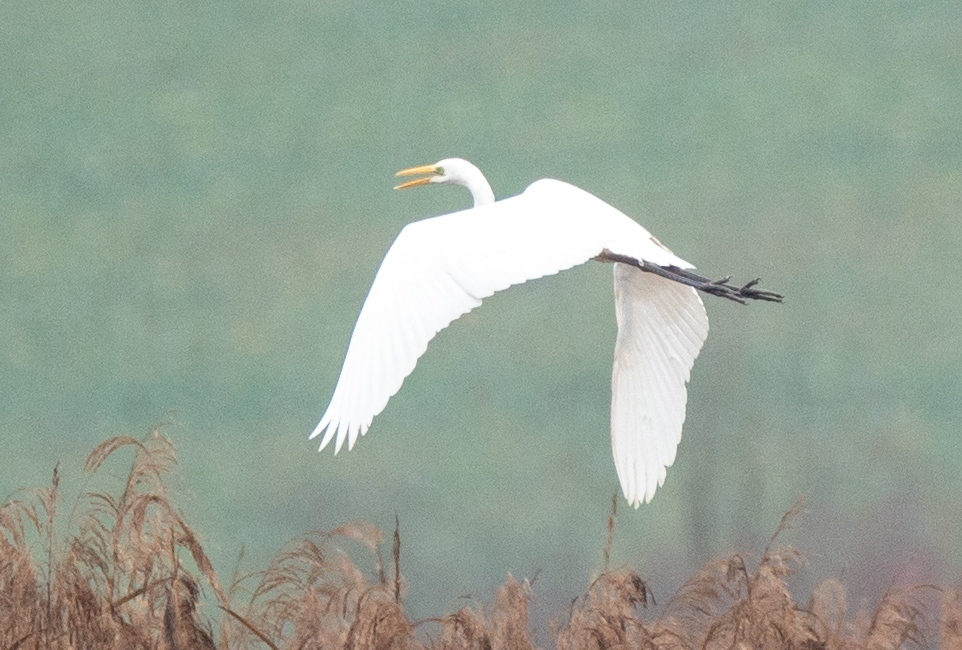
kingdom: Animalia
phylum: Chordata
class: Aves
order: Pelecaniformes
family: Ardeidae
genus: Ardea
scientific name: Ardea alba
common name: Great egret
